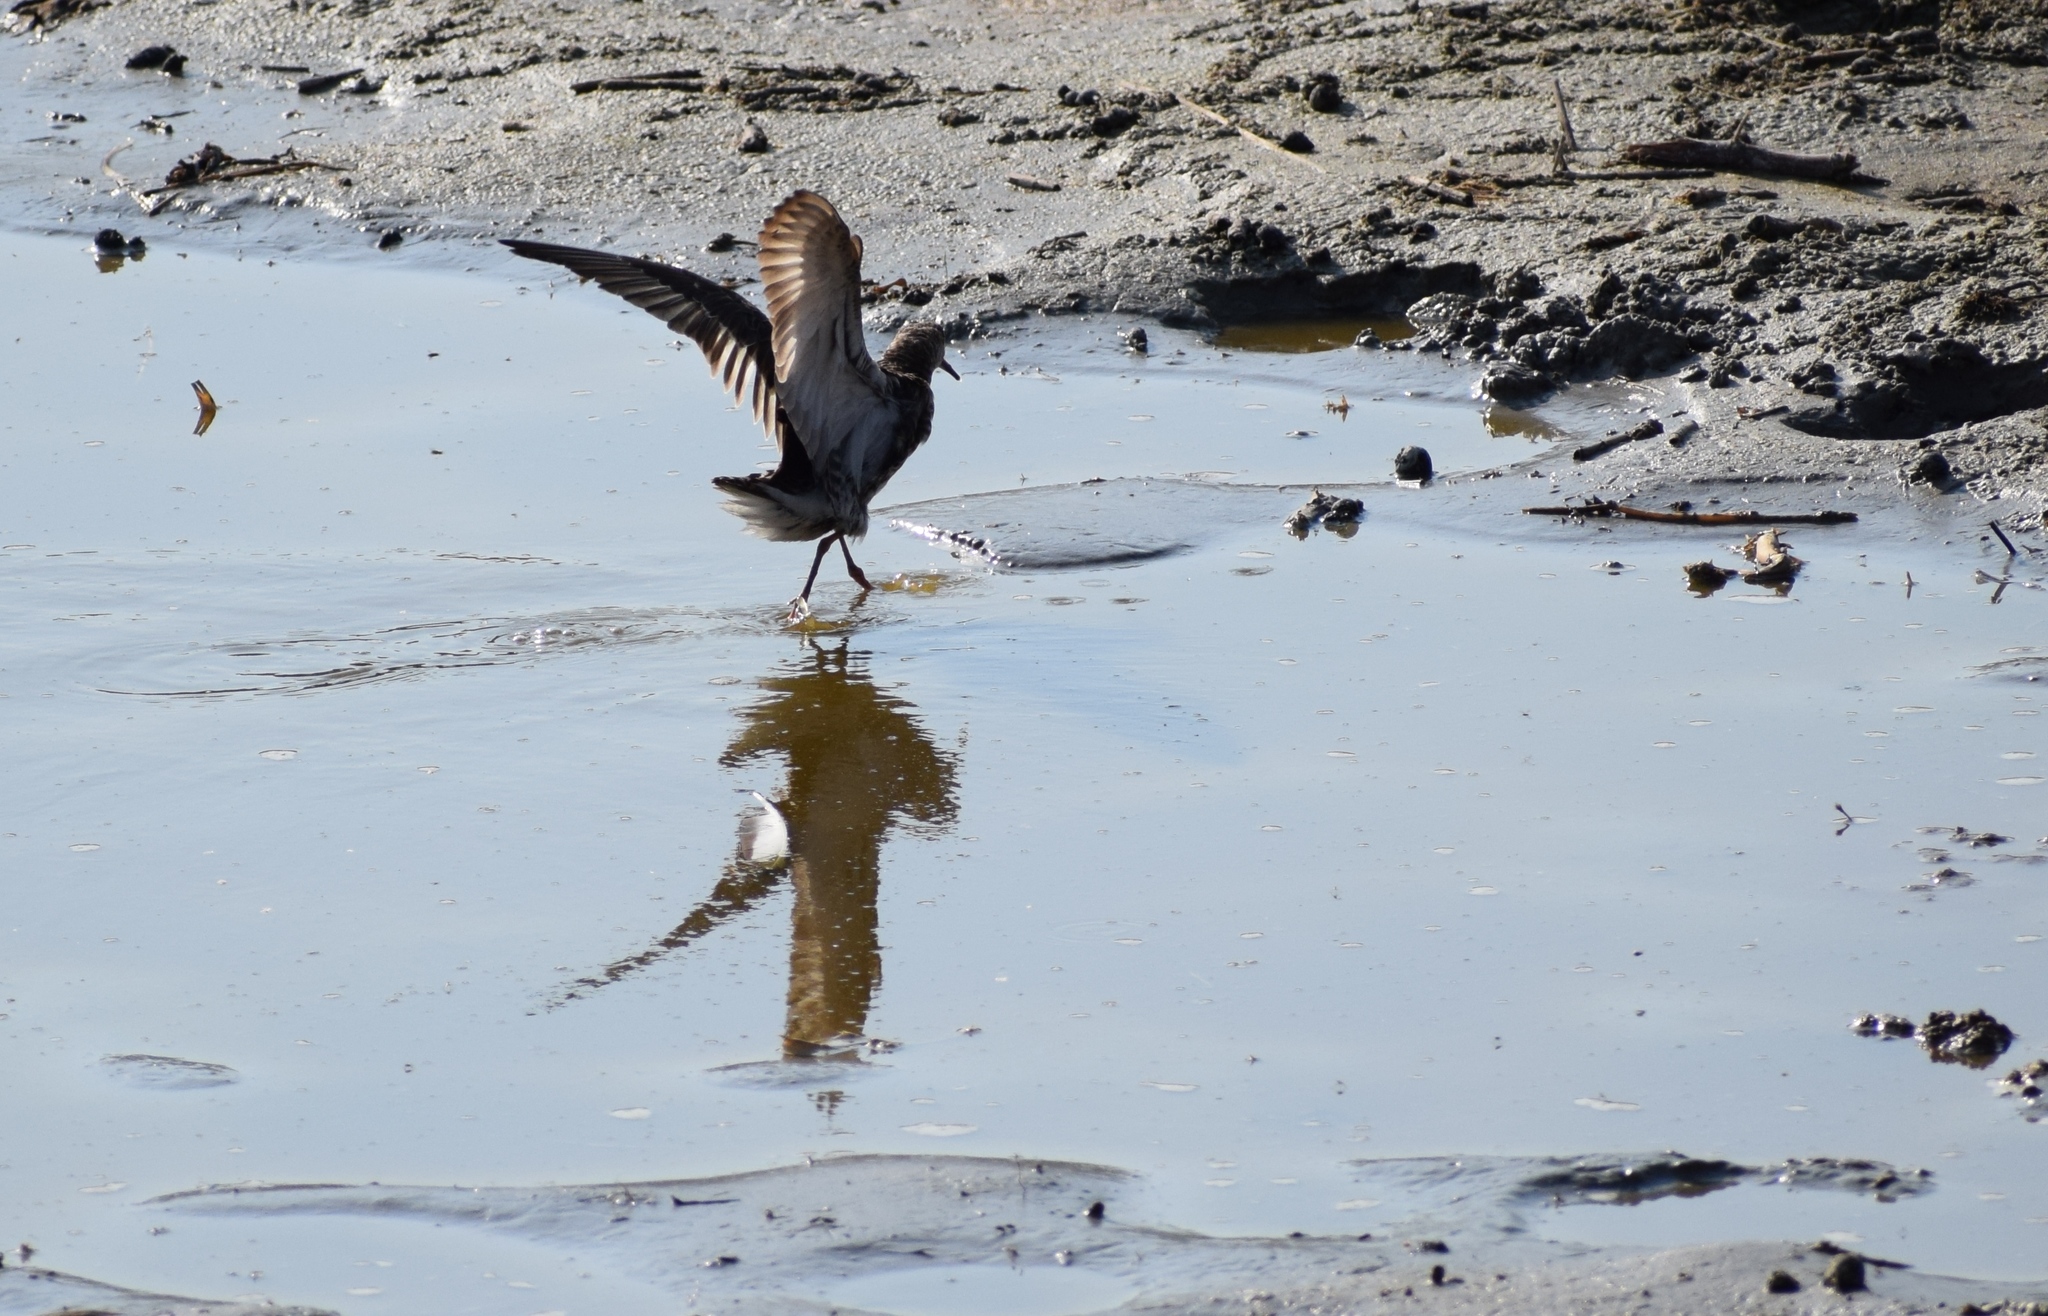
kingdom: Animalia
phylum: Chordata
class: Aves
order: Charadriiformes
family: Scolopacidae
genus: Calidris
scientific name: Calidris pugnax
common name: Ruff
